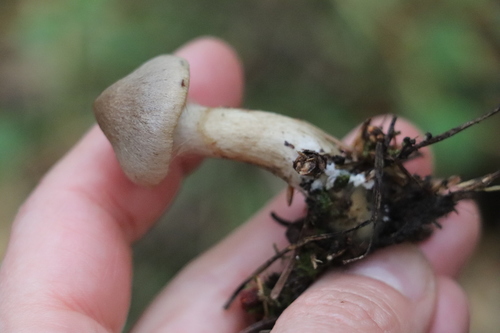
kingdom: Fungi
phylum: Basidiomycota
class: Agaricomycetes
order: Agaricales
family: Cortinariaceae
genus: Cortinarius
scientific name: Cortinarius betuletorum
